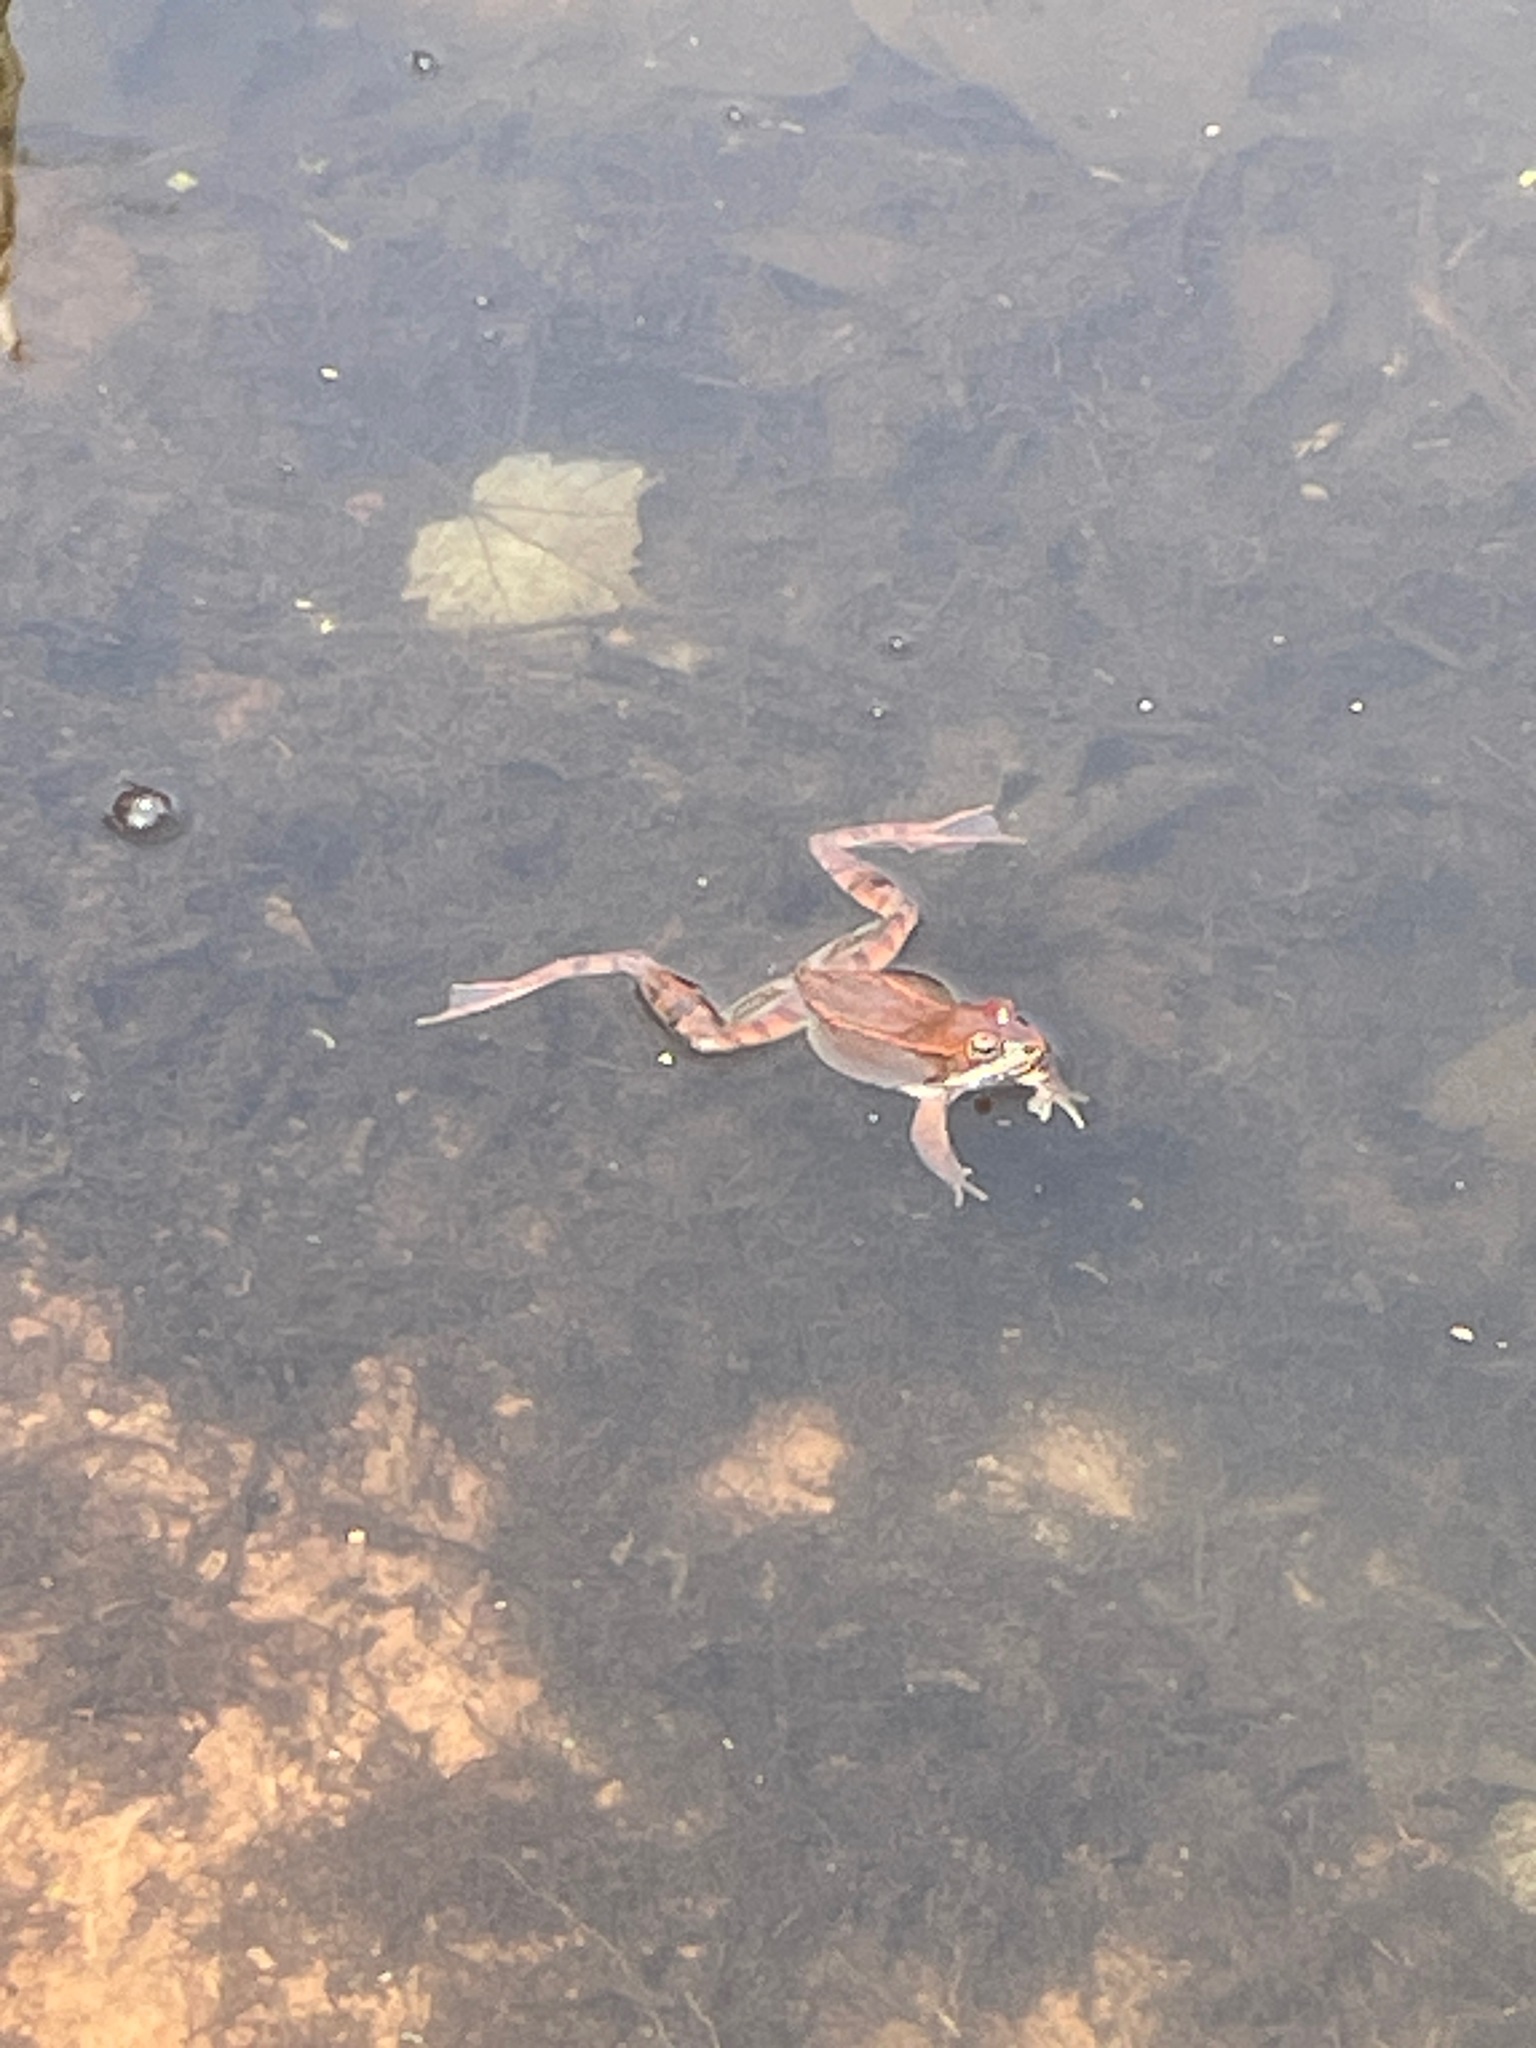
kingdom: Animalia
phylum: Chordata
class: Amphibia
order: Anura
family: Ranidae
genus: Lithobates
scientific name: Lithobates sylvaticus
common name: Wood frog
